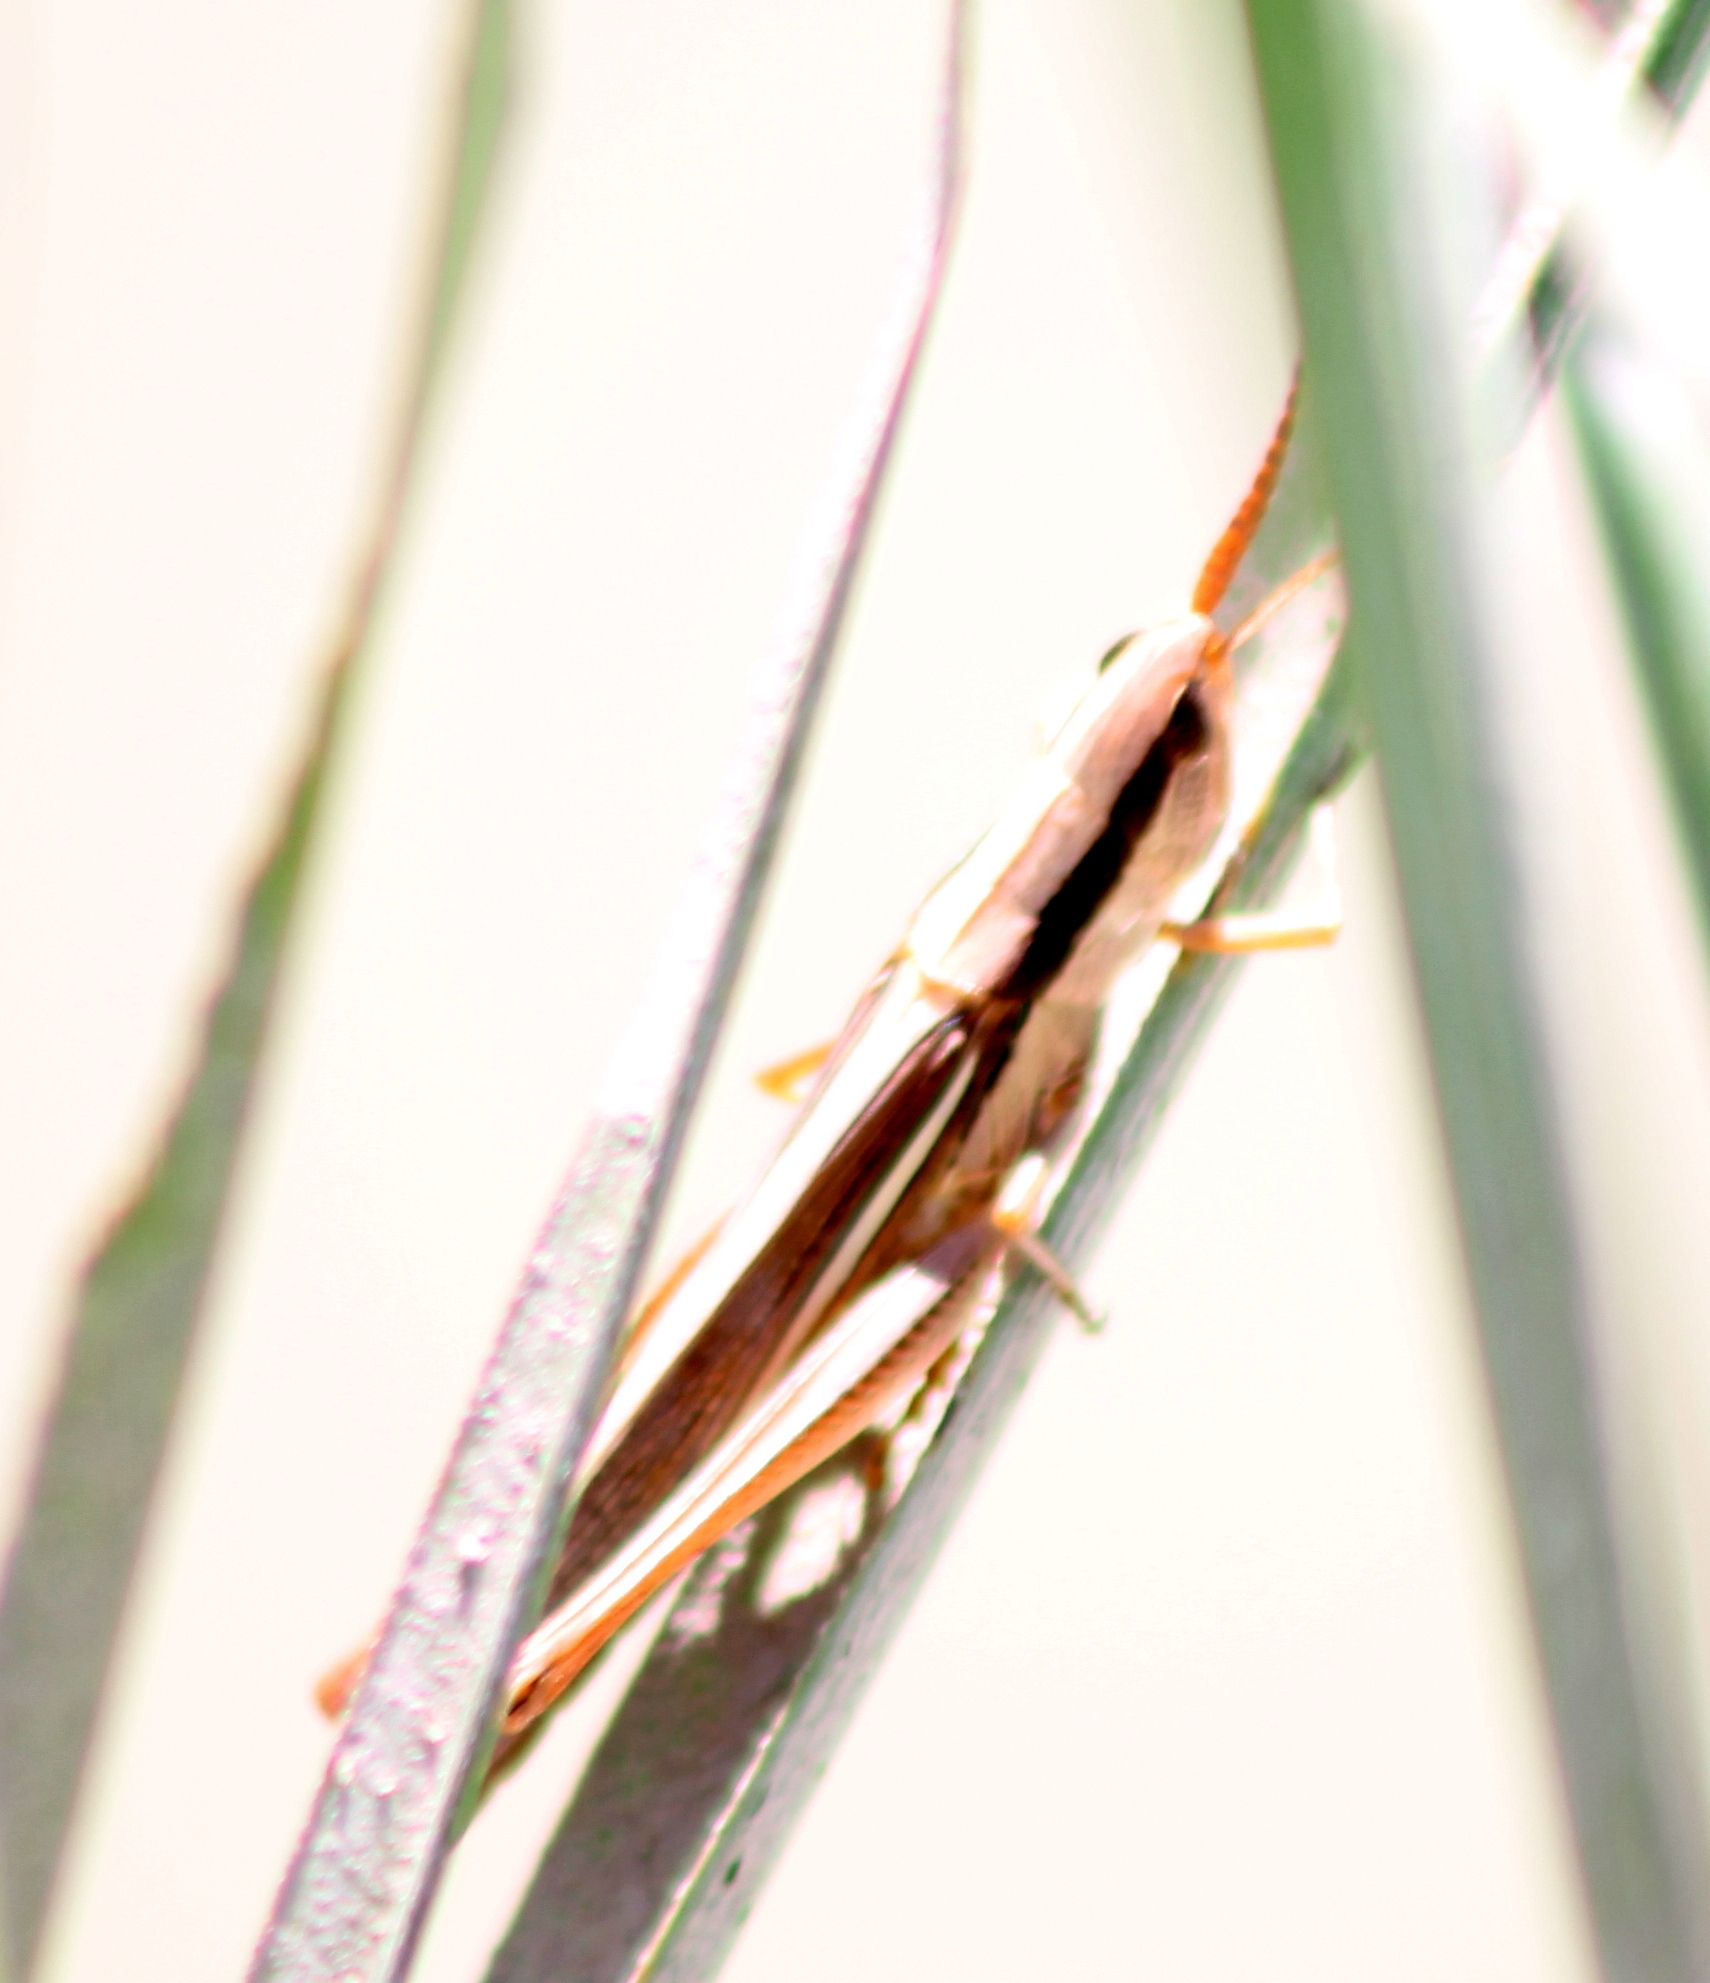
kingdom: Animalia
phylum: Arthropoda
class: Insecta
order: Orthoptera
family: Acrididae
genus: Mermiria
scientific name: Mermiria bivittata
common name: Two-striped mermiria grasshopper
